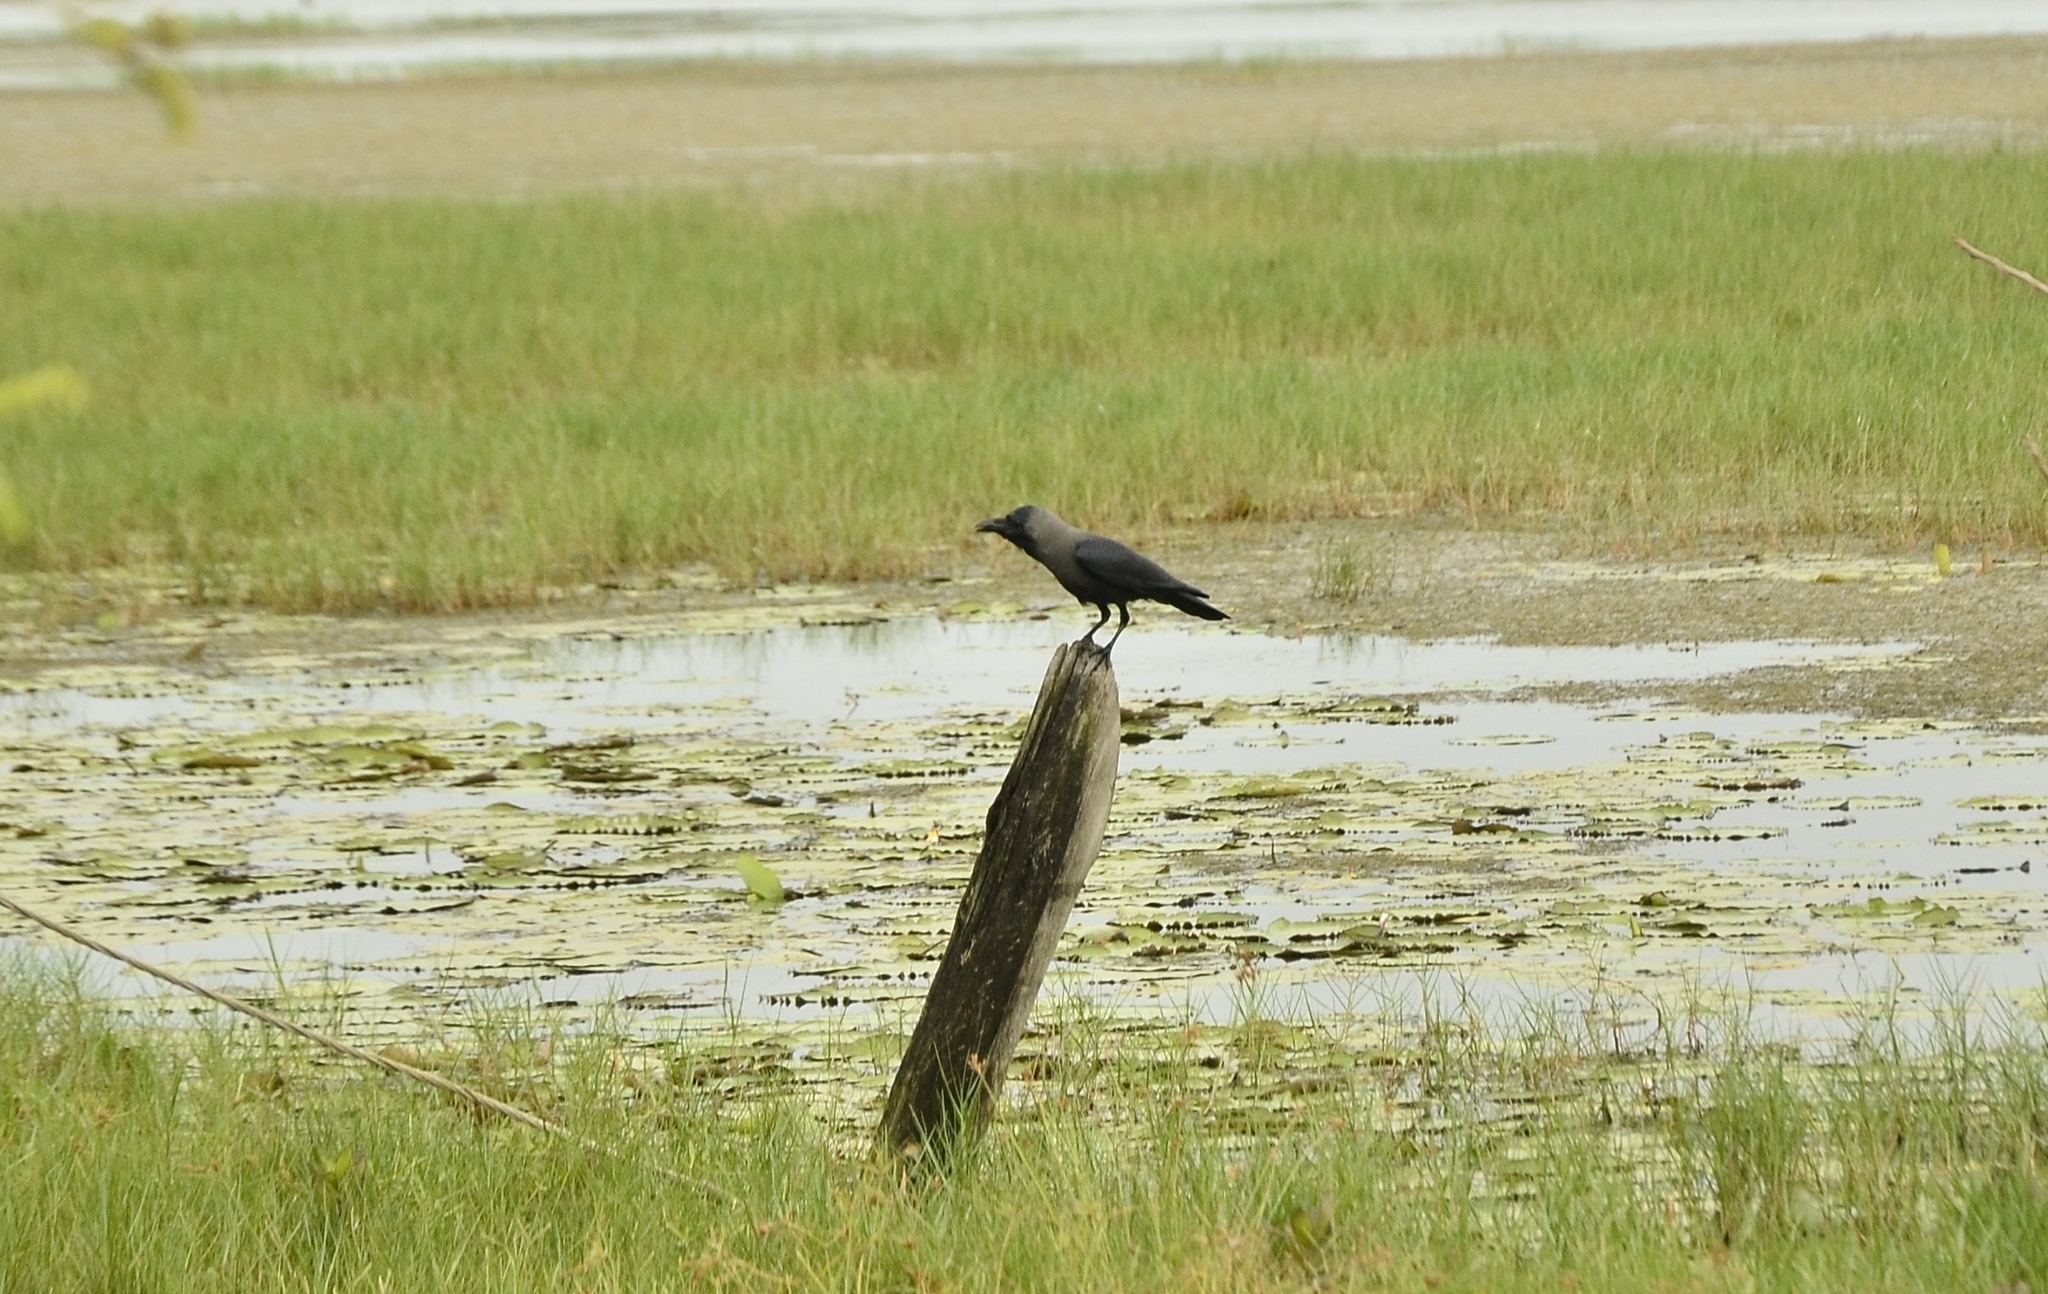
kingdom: Animalia
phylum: Chordata
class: Aves
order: Passeriformes
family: Corvidae
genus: Corvus
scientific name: Corvus splendens
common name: House crow
